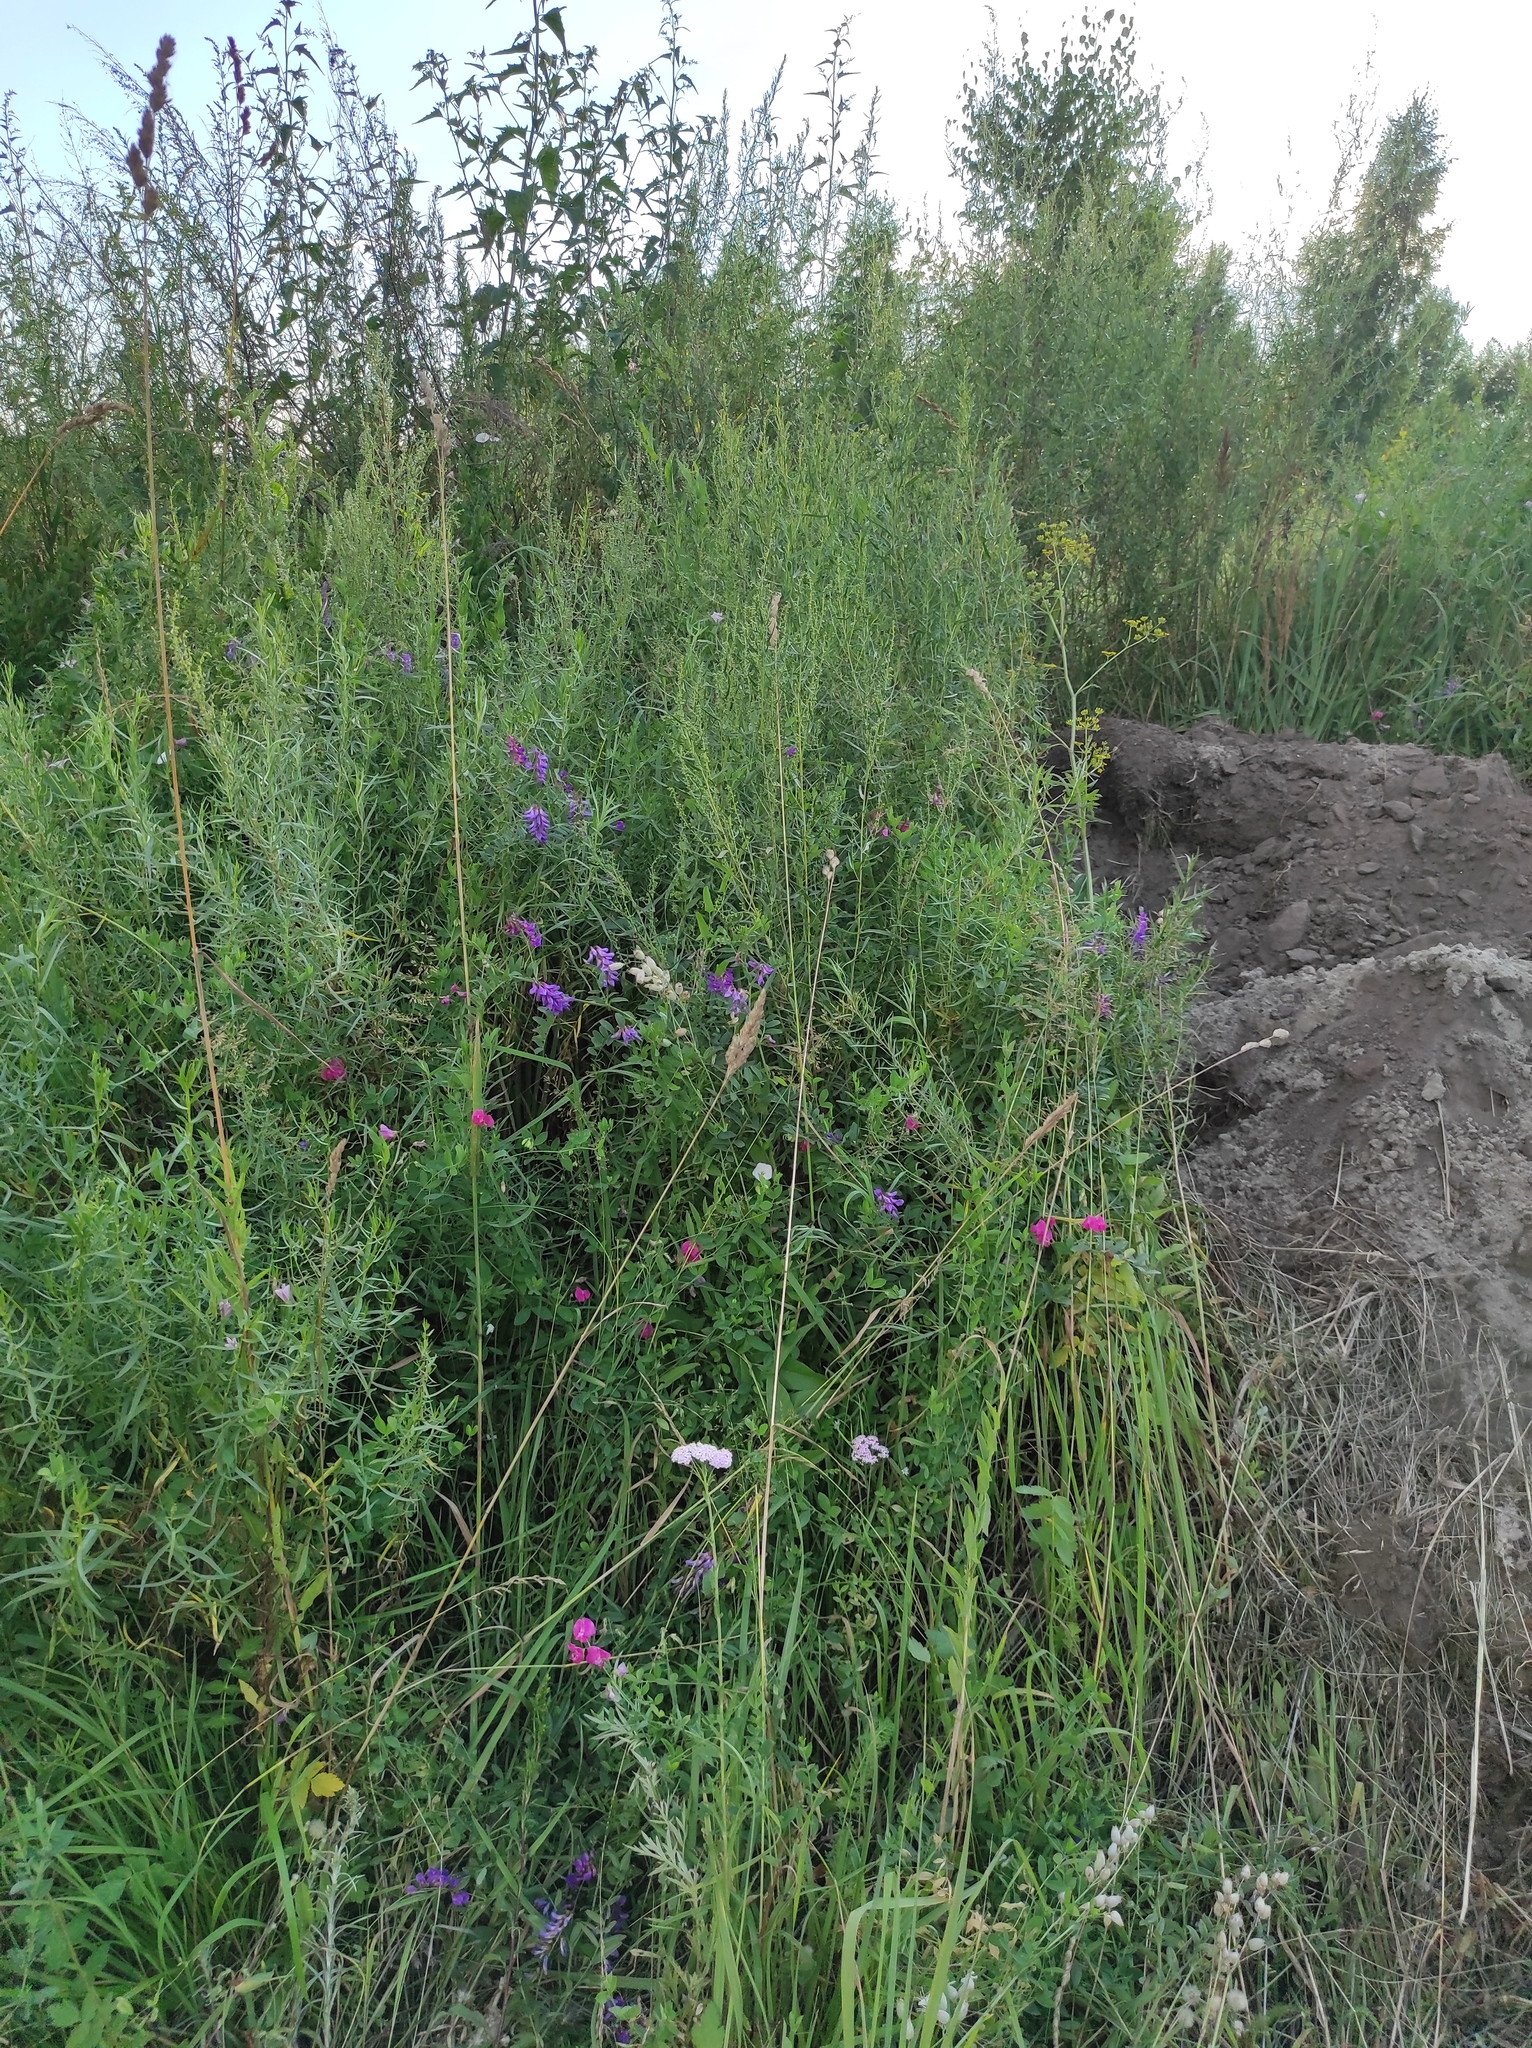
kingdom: Plantae
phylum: Tracheophyta
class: Magnoliopsida
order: Fabales
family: Fabaceae
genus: Lathyrus
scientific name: Lathyrus tuberosus
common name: Tuberous pea
